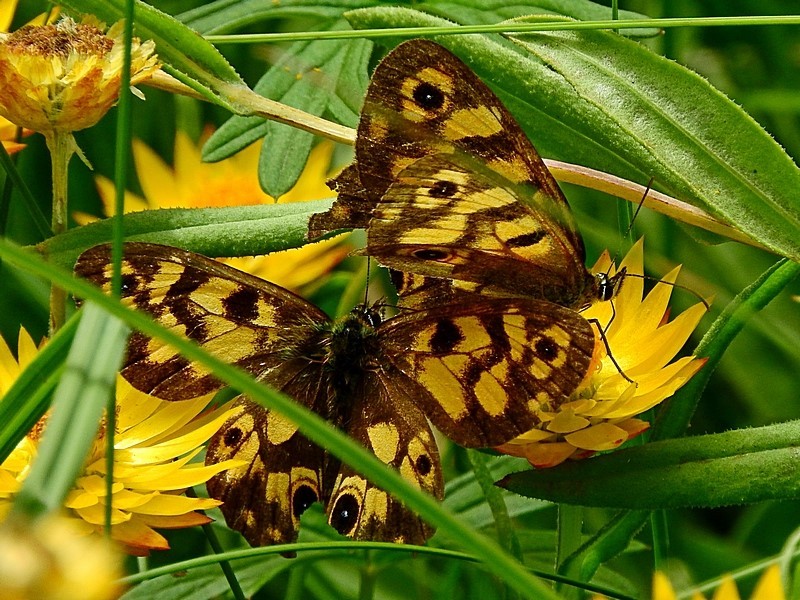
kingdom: Animalia
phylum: Arthropoda
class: Insecta
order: Lepidoptera
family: Nymphalidae
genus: Heteronympha
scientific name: Heteronympha cordace
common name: Bright-eyed brown
